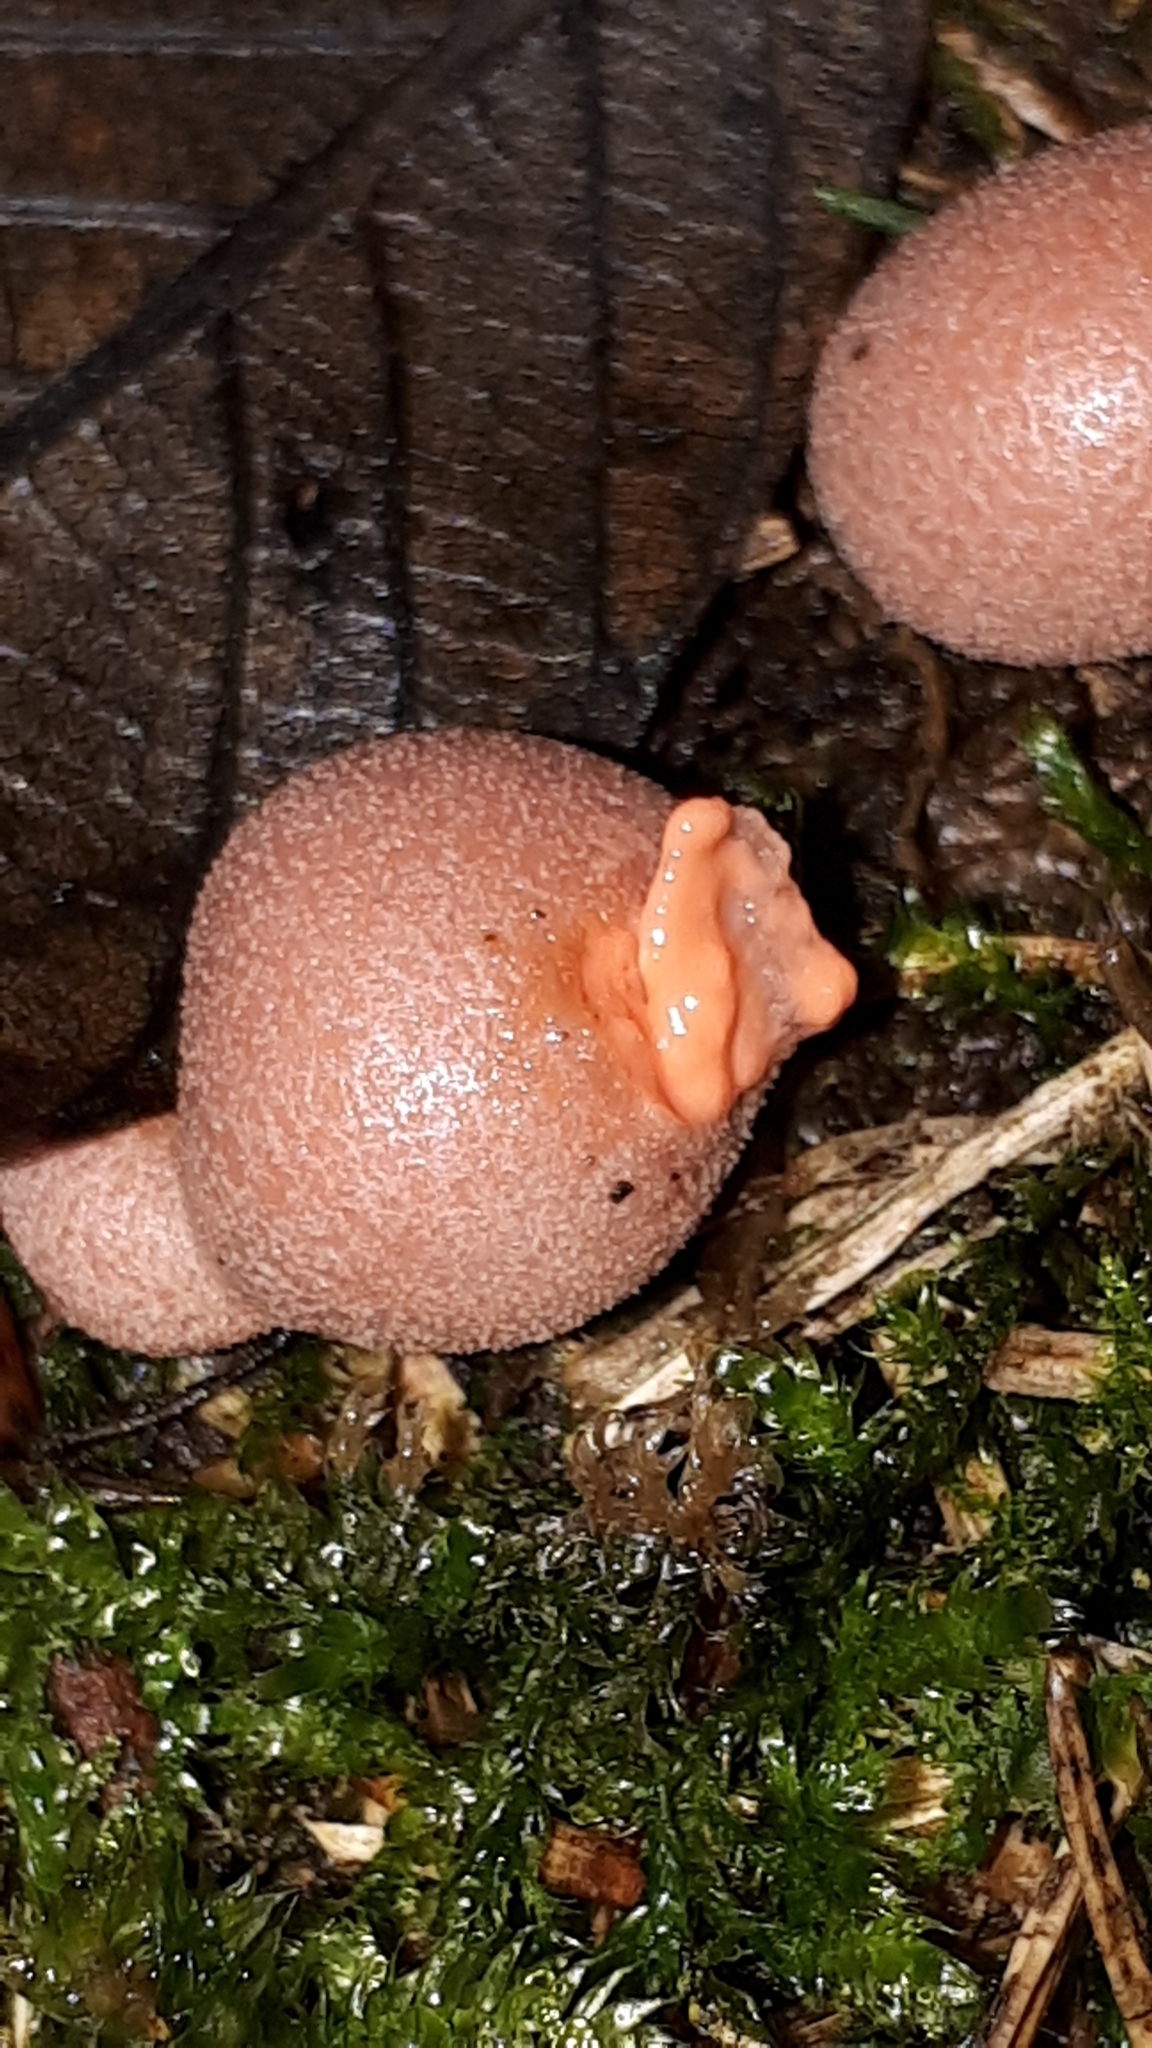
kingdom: Protozoa
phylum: Mycetozoa
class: Myxomycetes
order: Cribrariales
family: Tubiferaceae
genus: Lycogala
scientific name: Lycogala epidendrum
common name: Wolf's milk
